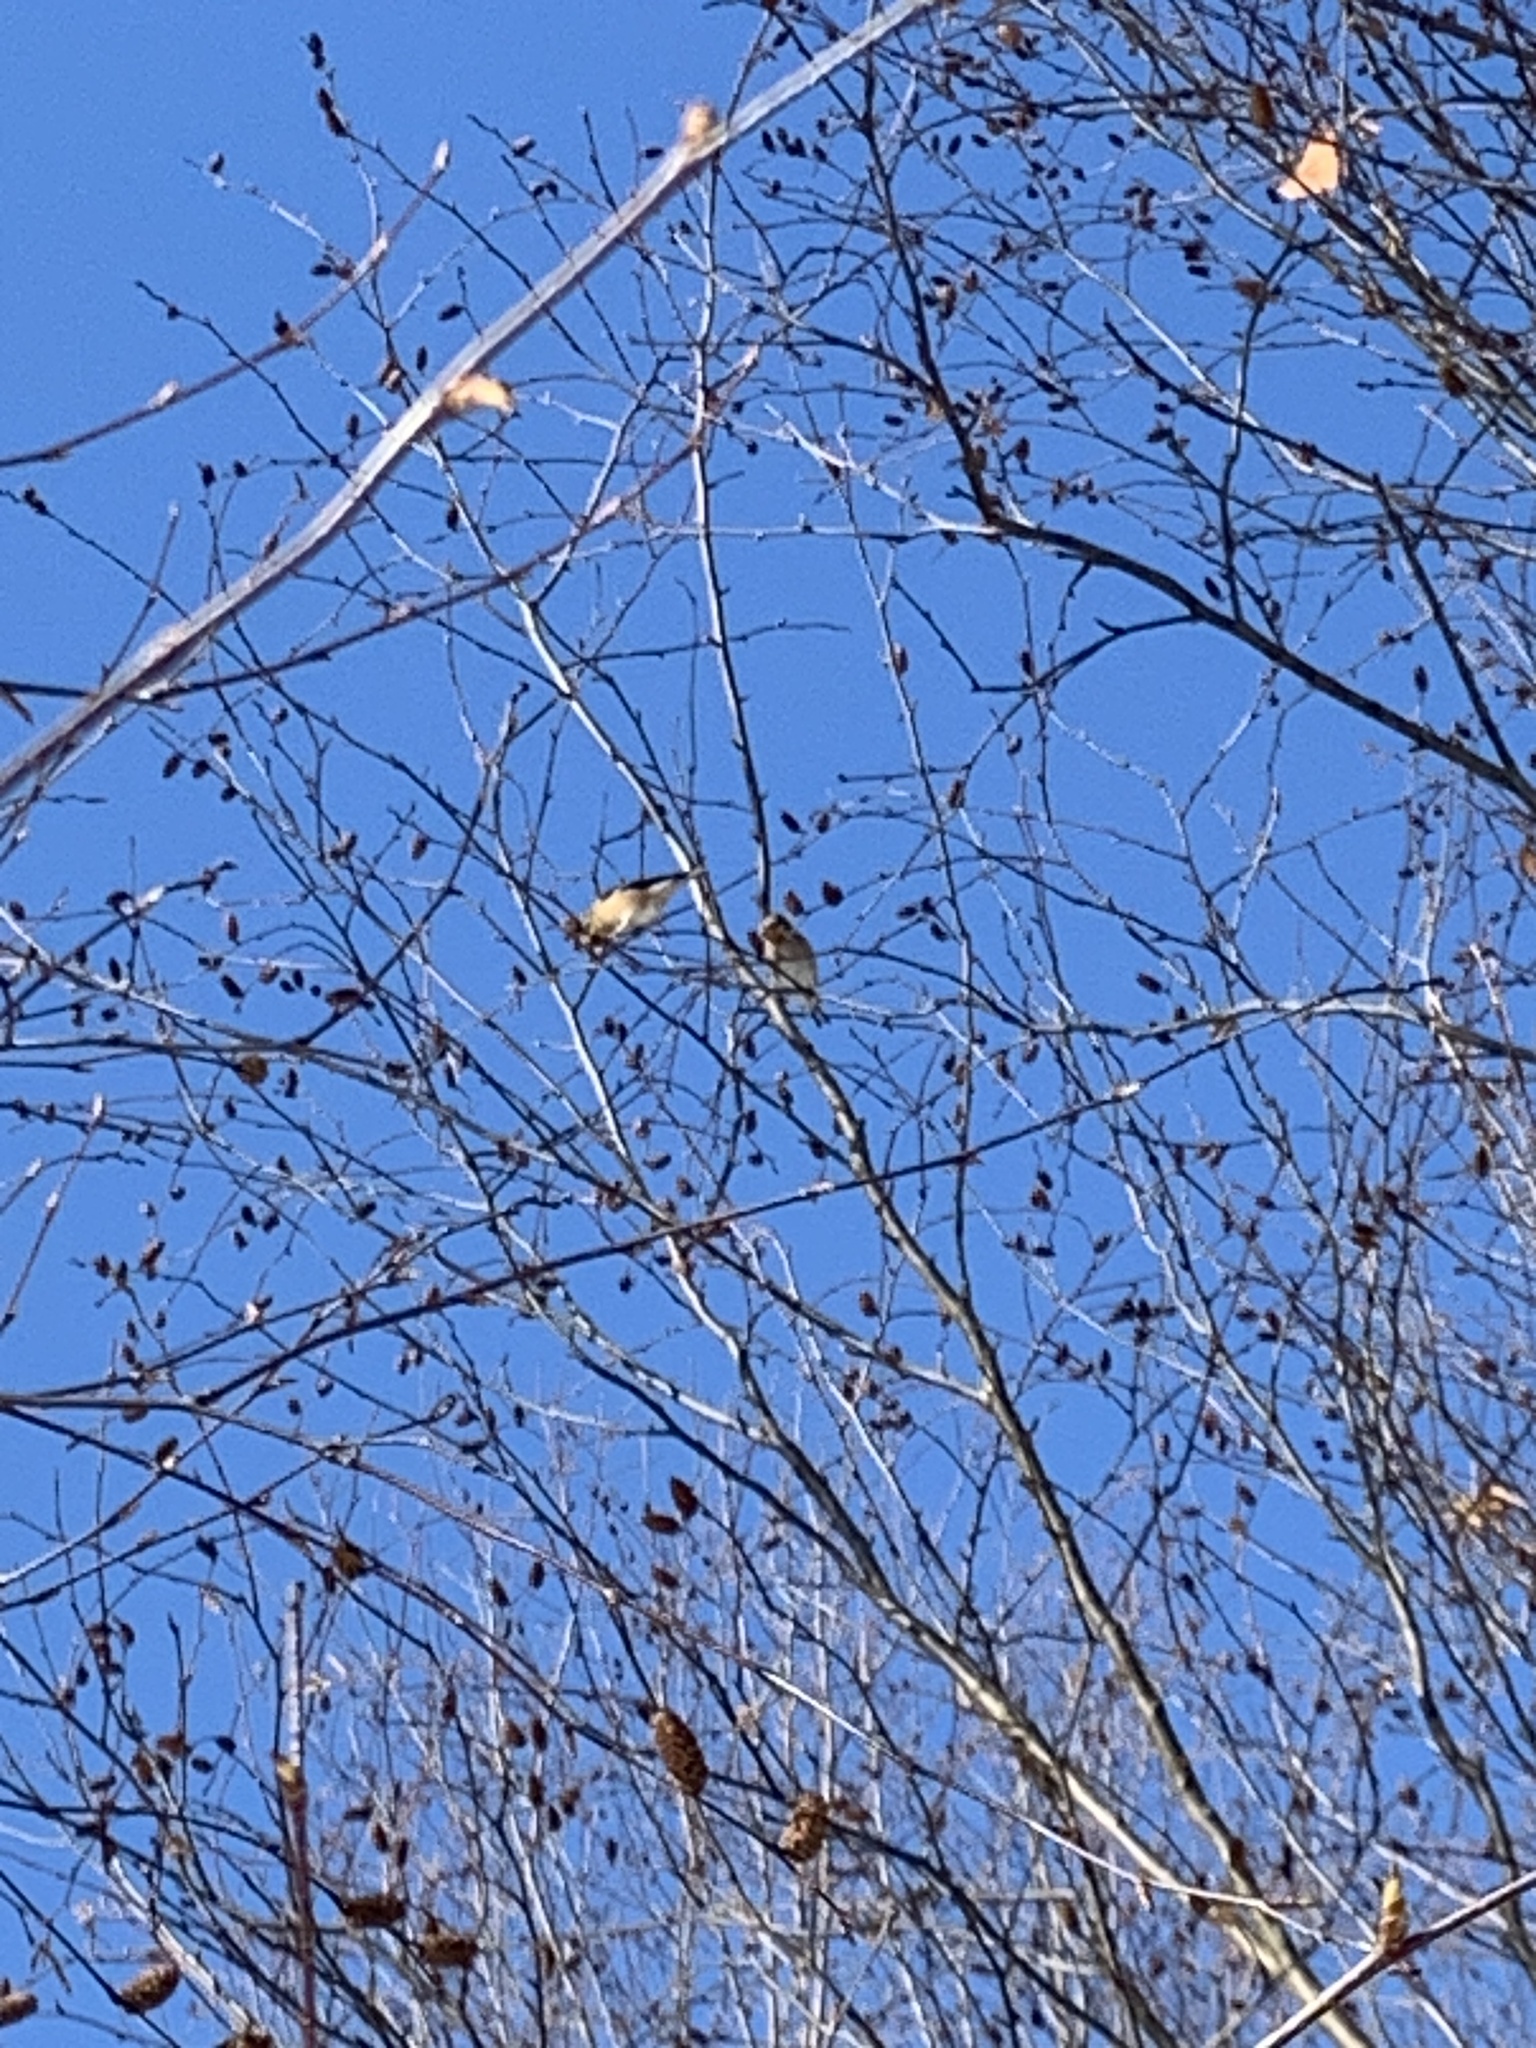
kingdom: Animalia
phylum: Chordata
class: Aves
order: Passeriformes
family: Fringillidae
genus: Spinus
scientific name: Spinus tristis
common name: American goldfinch
